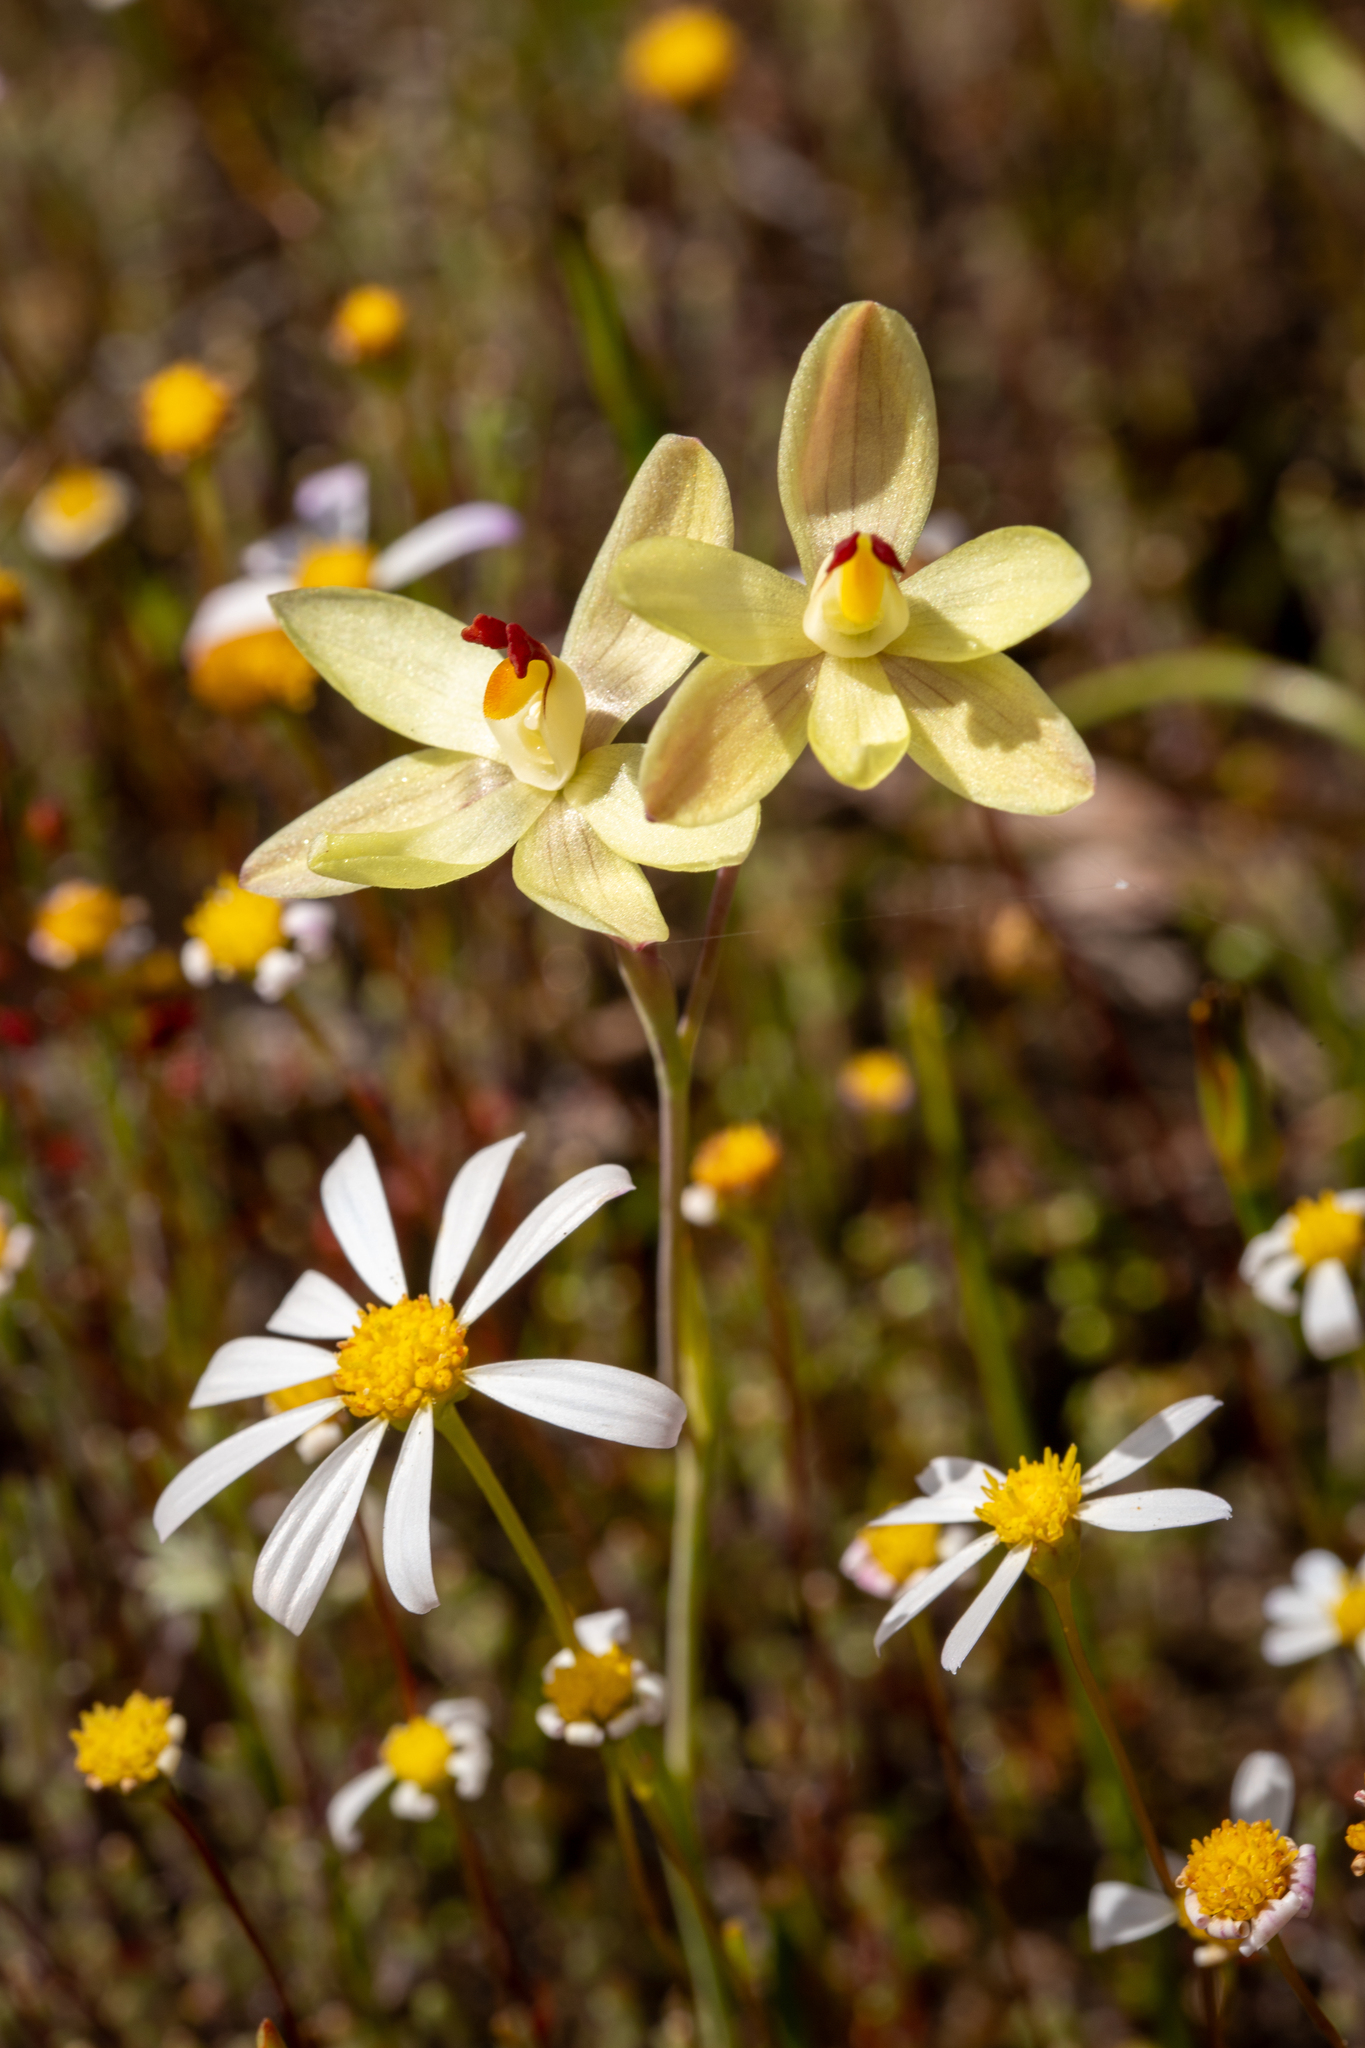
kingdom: Plantae
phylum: Tracheophyta
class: Liliopsida
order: Asparagales
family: Orchidaceae
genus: Thelymitra
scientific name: Thelymitra antennifera
